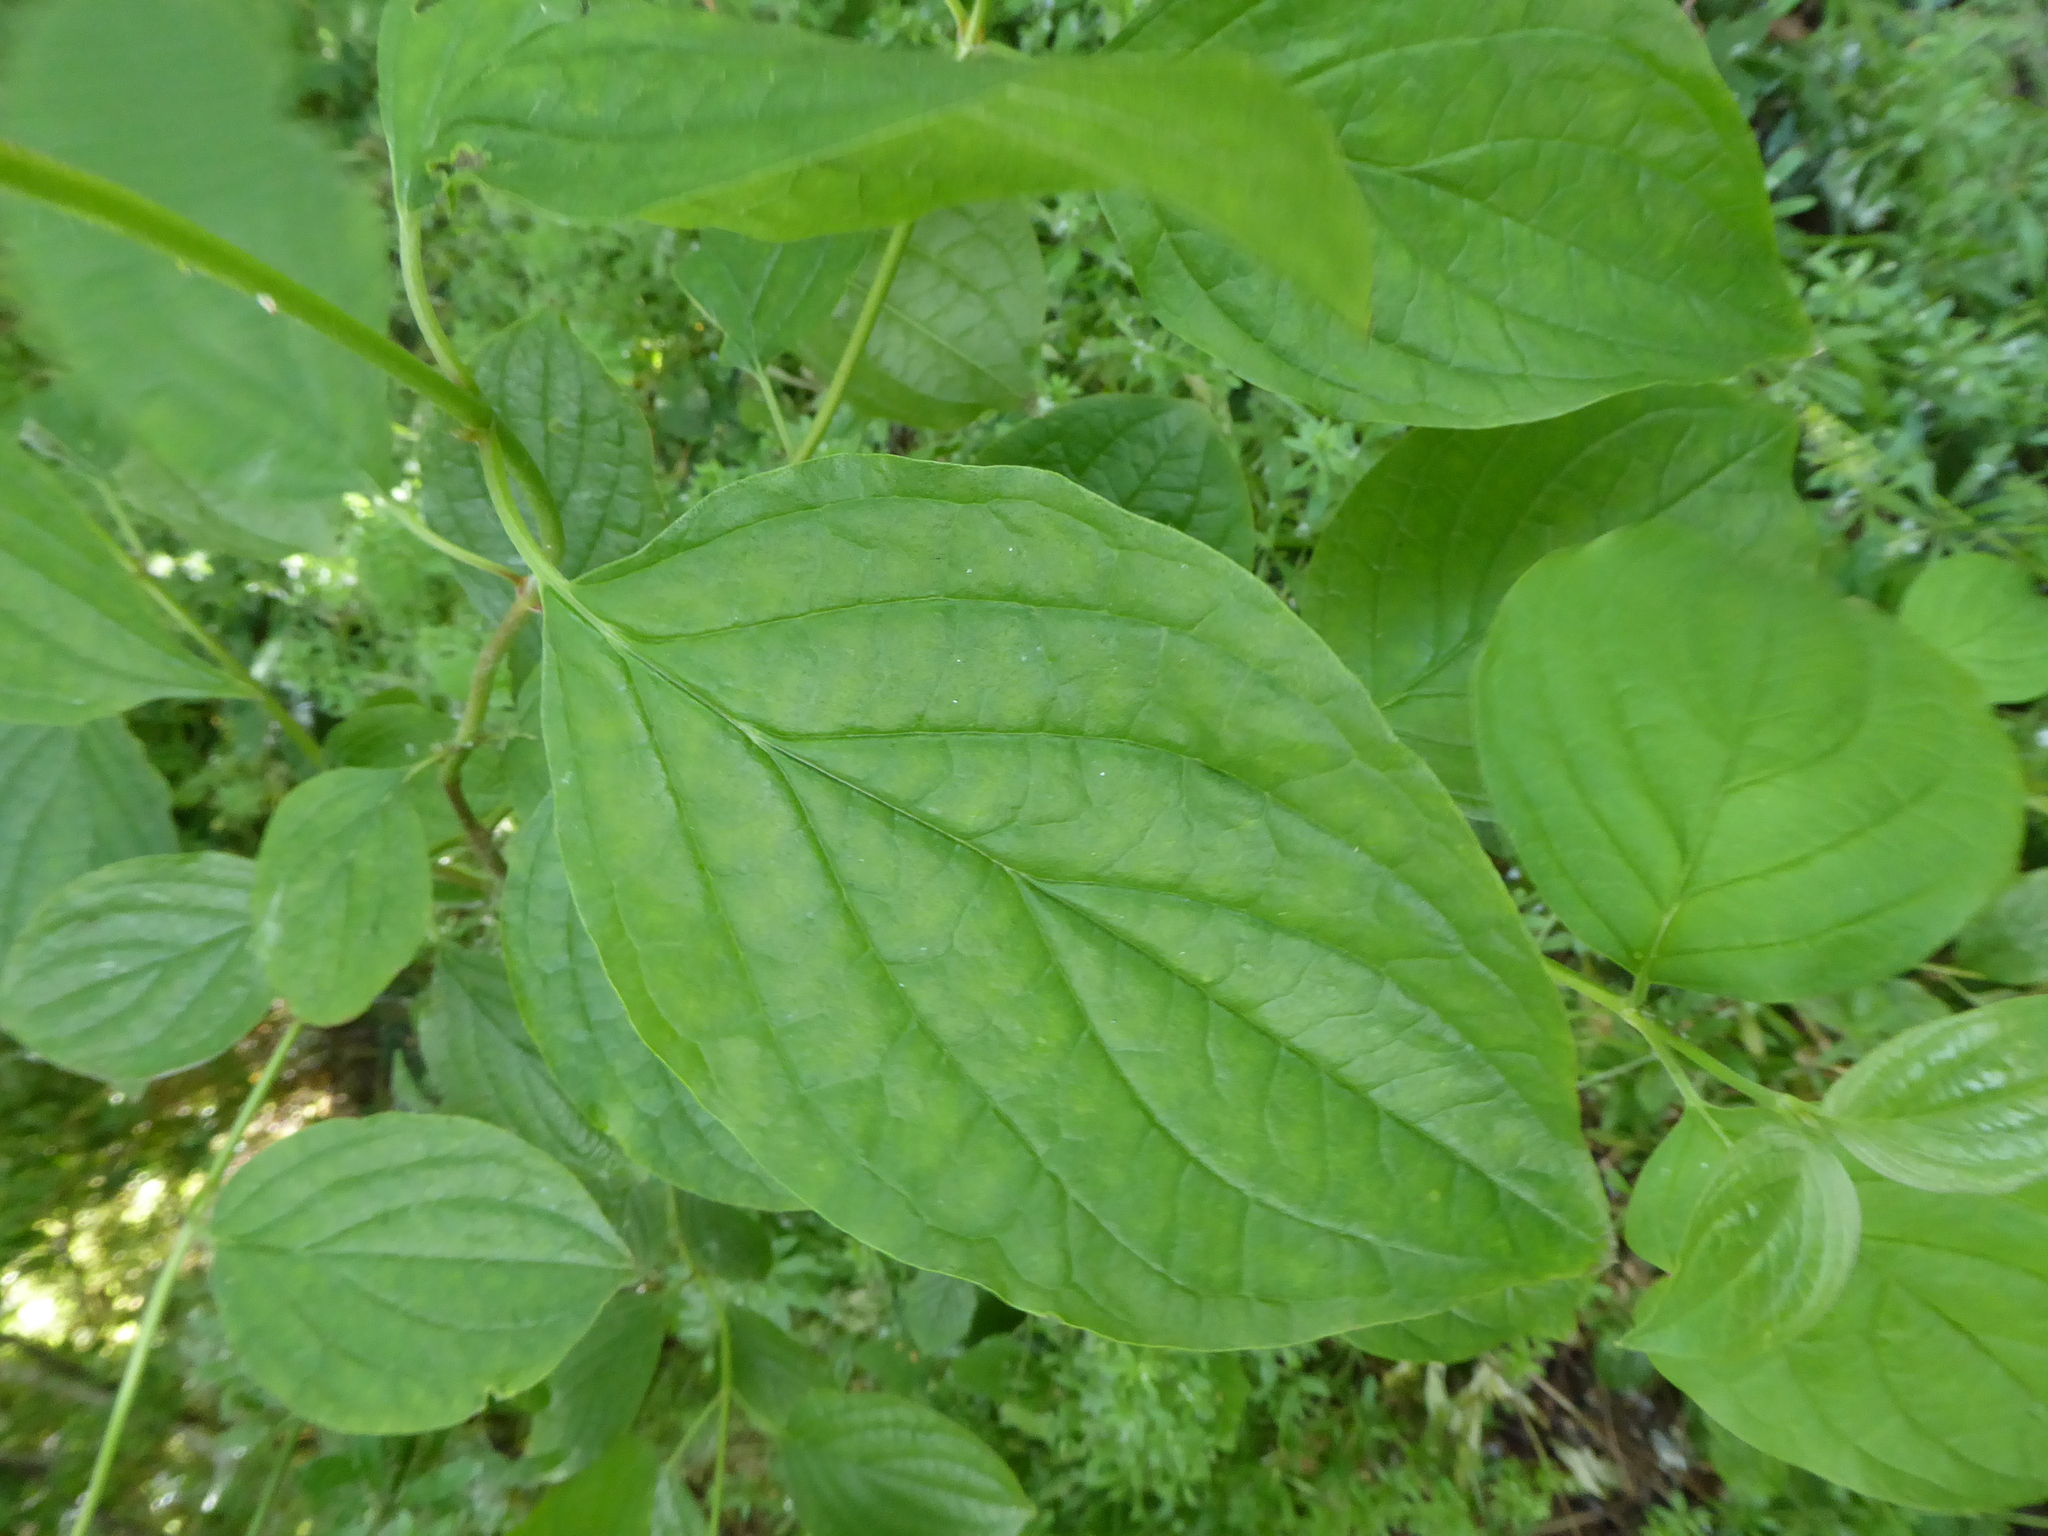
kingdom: Plantae
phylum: Tracheophyta
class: Magnoliopsida
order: Cornales
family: Cornaceae
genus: Cornus
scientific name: Cornus sanguinea
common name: Dogwood
